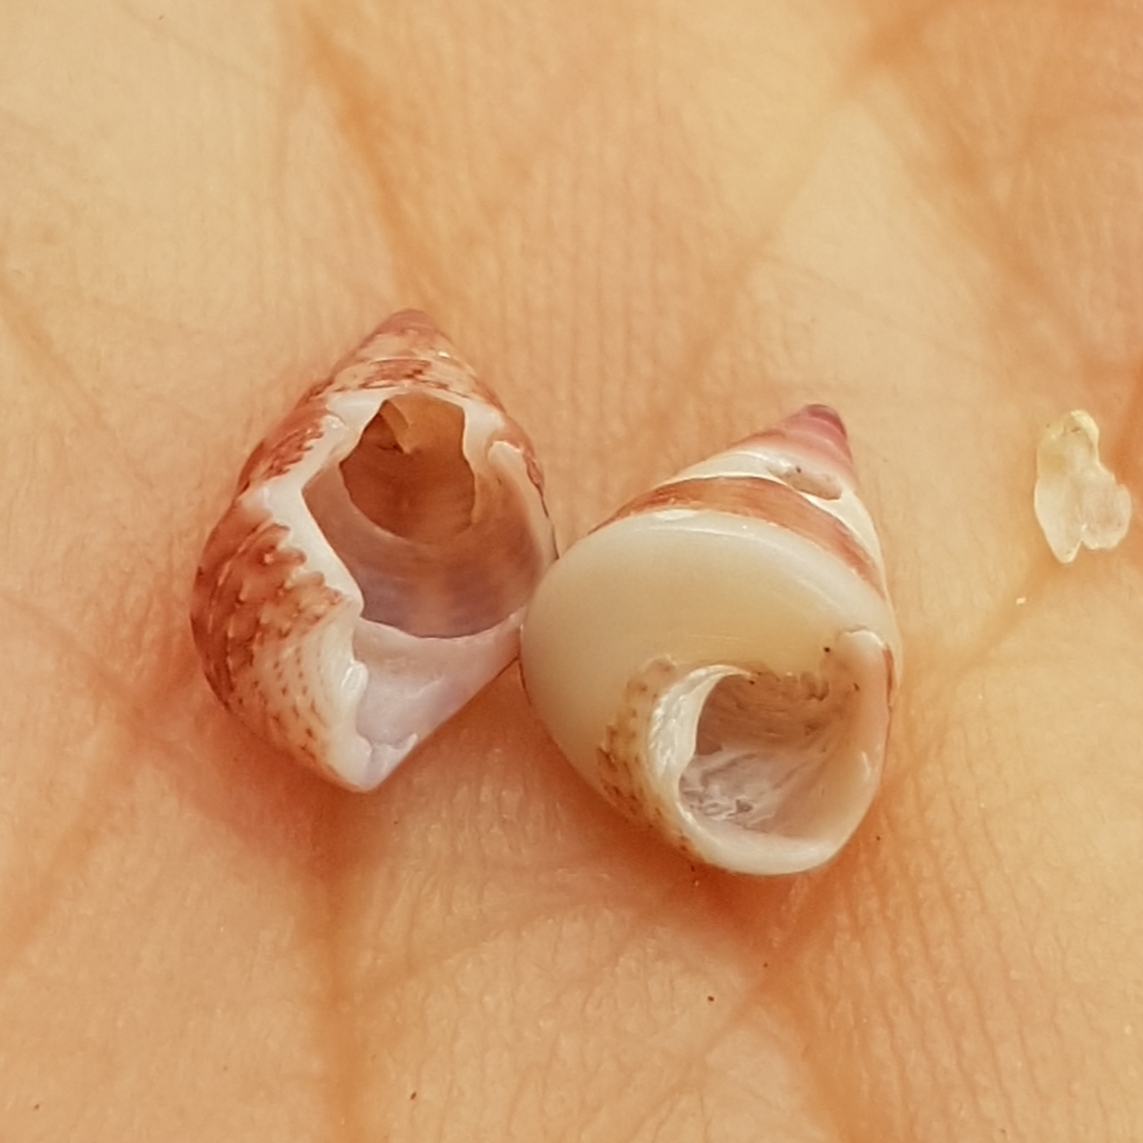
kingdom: Animalia
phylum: Mollusca
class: Gastropoda
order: Trochida
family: Trochidae
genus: Jujubinus
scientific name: Jujubinus exasperatus
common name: Rough top shell
